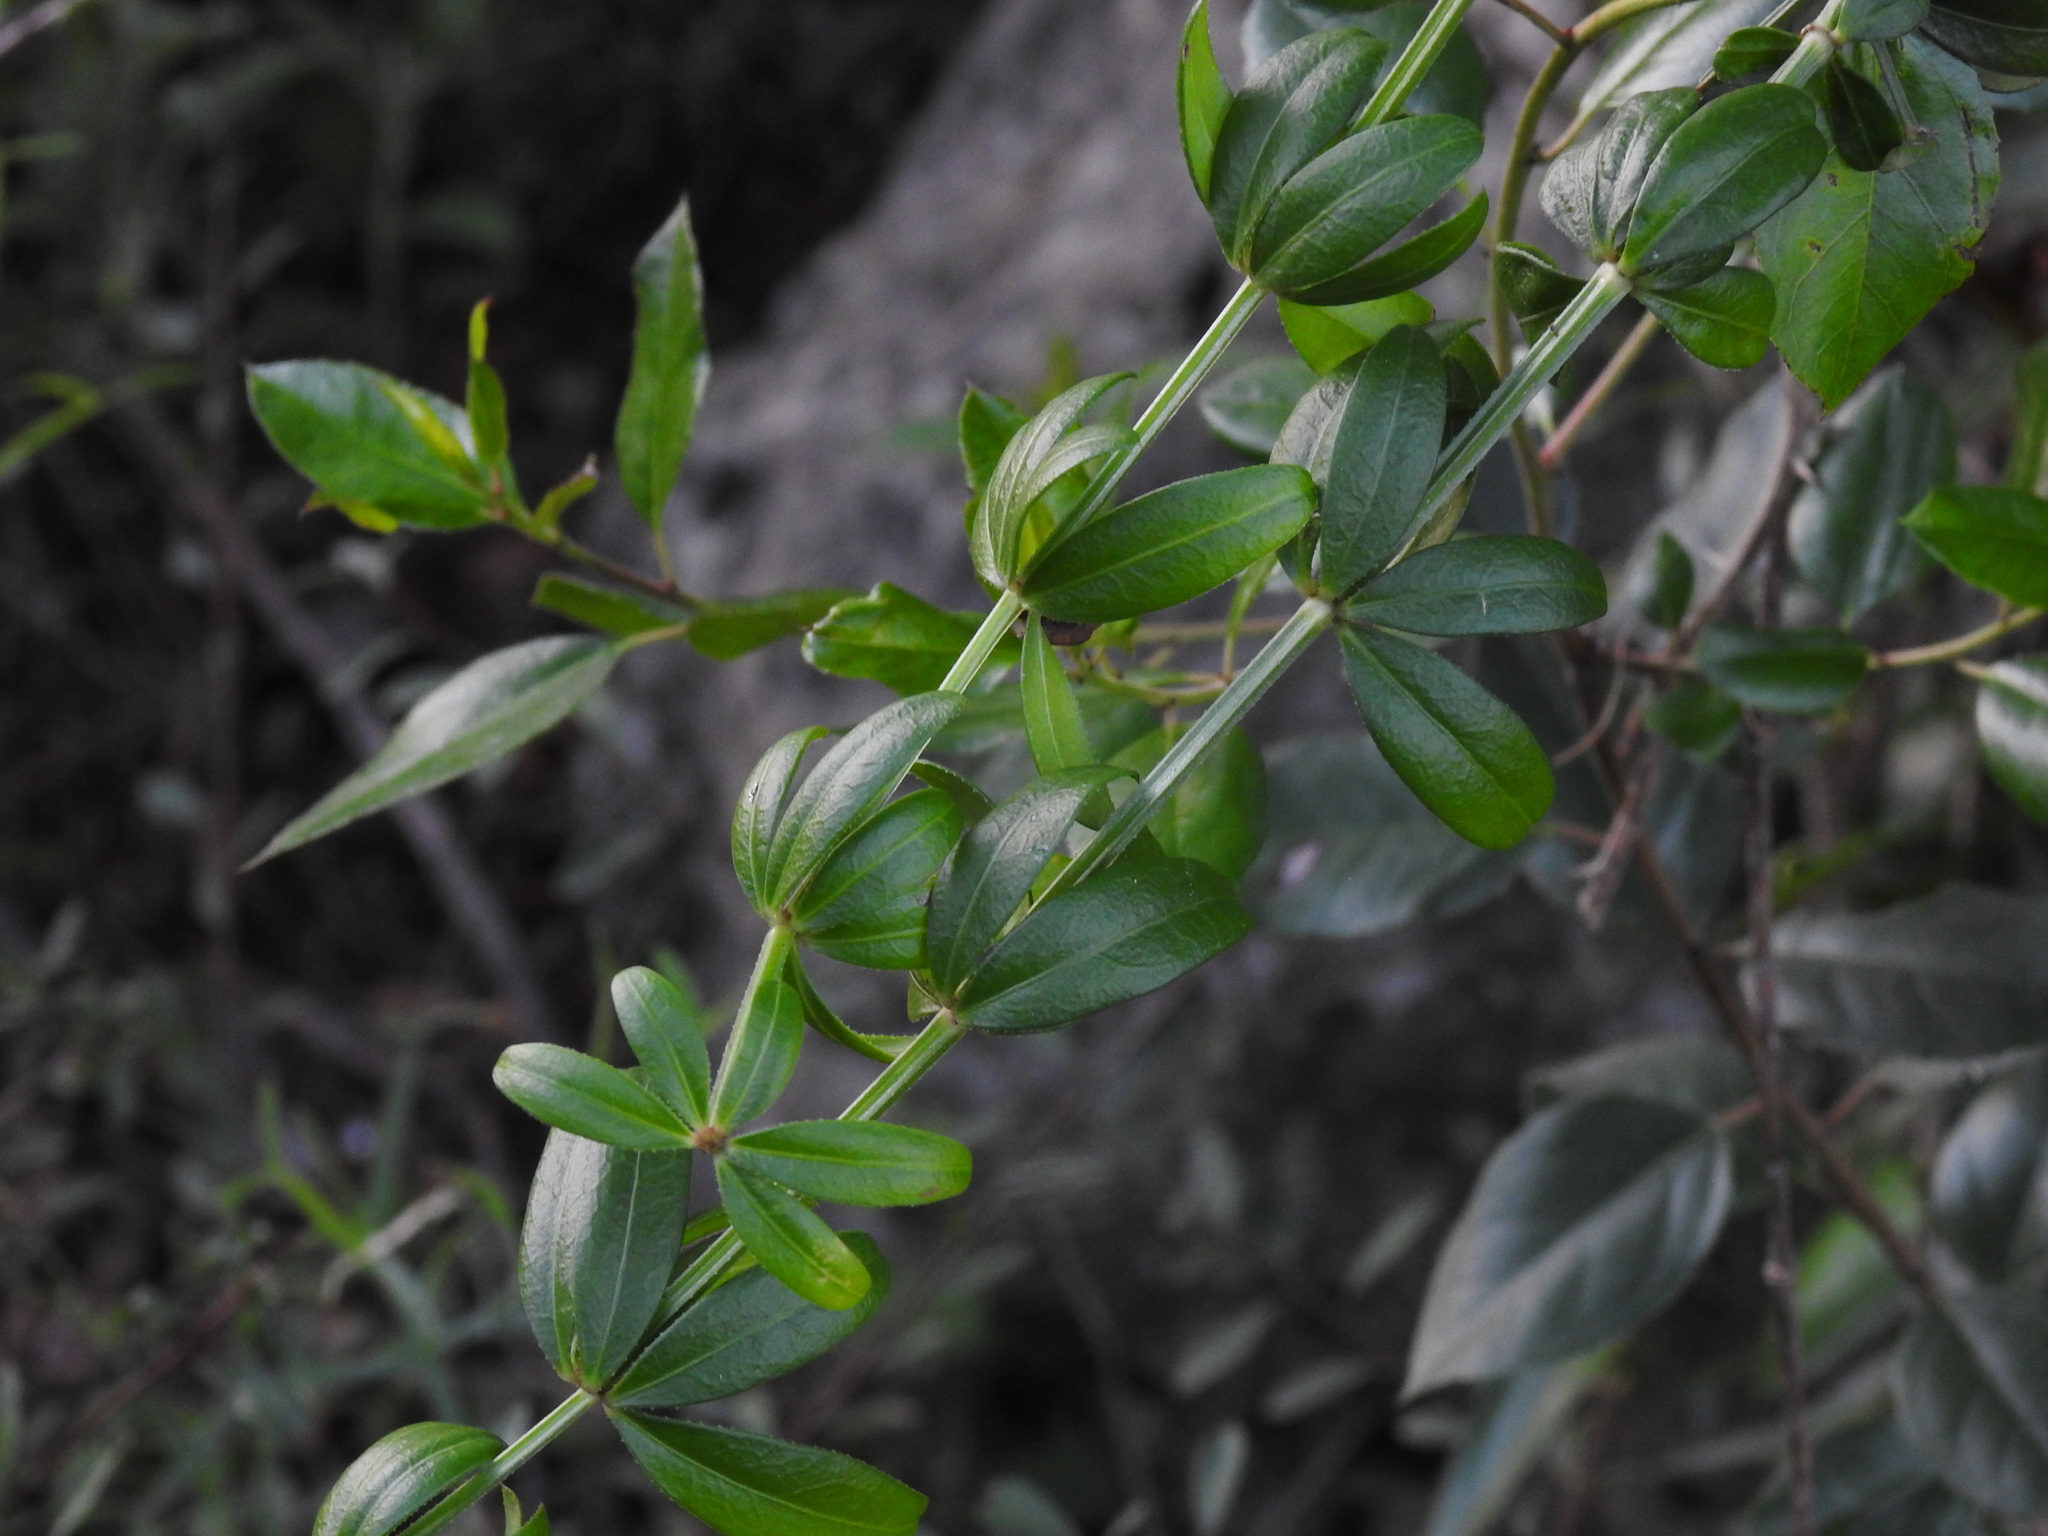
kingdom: Plantae
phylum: Tracheophyta
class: Magnoliopsida
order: Gentianales
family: Rubiaceae
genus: Rubia
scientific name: Rubia peregrina
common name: Wild madder
